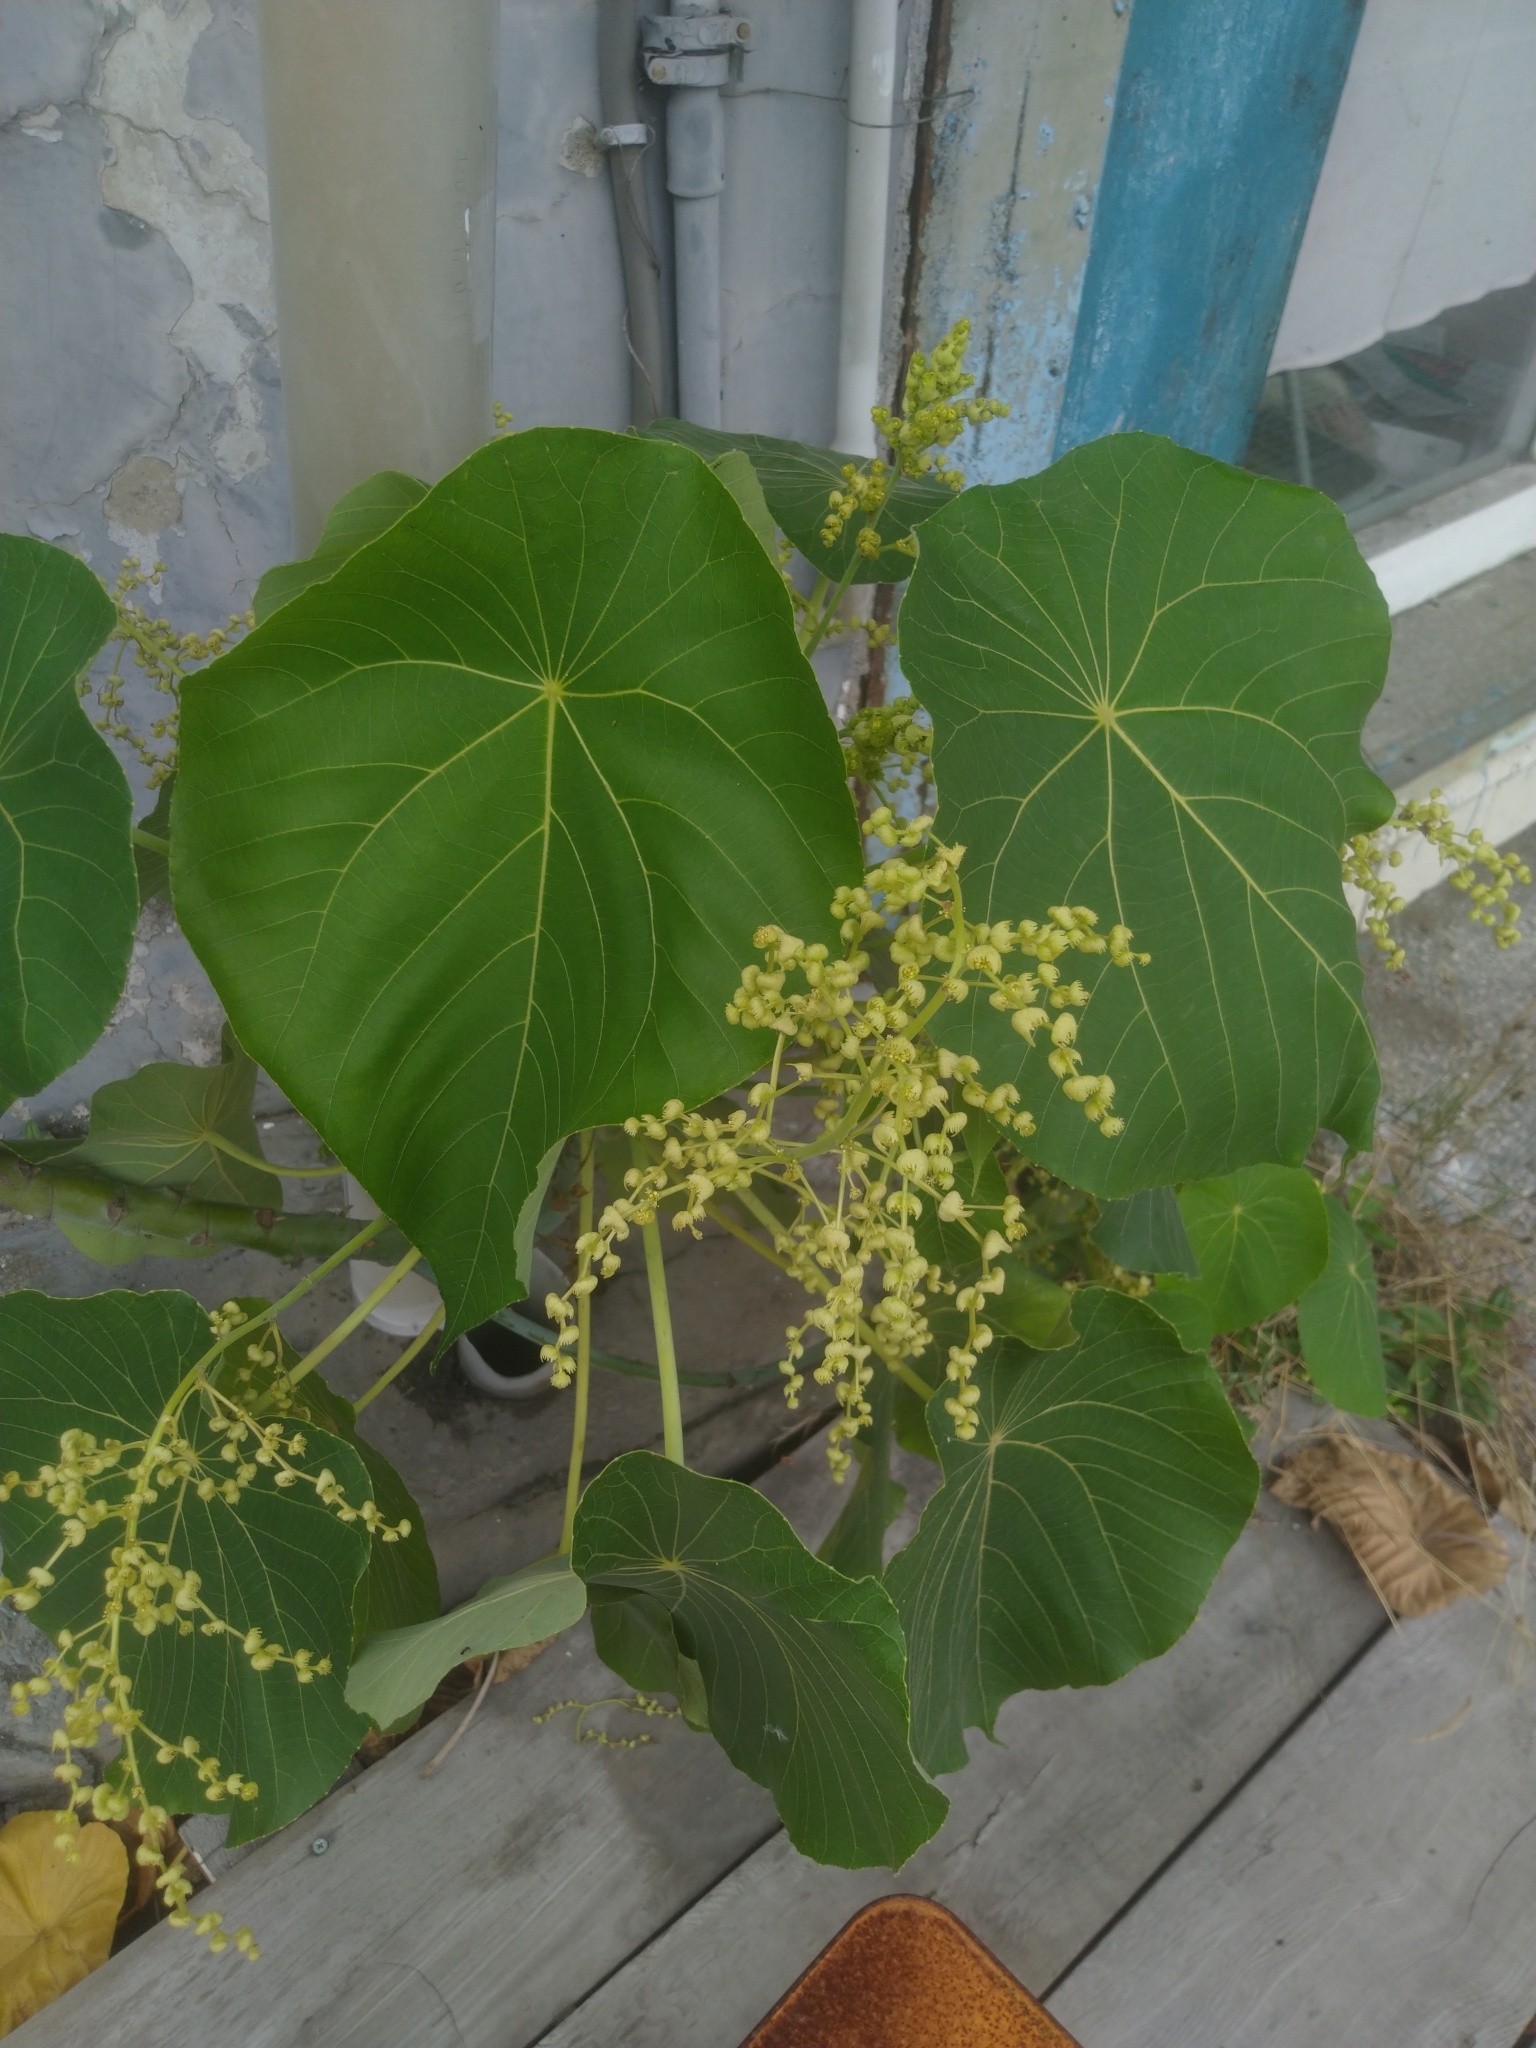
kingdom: Plantae
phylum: Tracheophyta
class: Magnoliopsida
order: Malpighiales
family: Euphorbiaceae
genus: Macaranga
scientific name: Macaranga tanarius
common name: Parasol leaf tree
